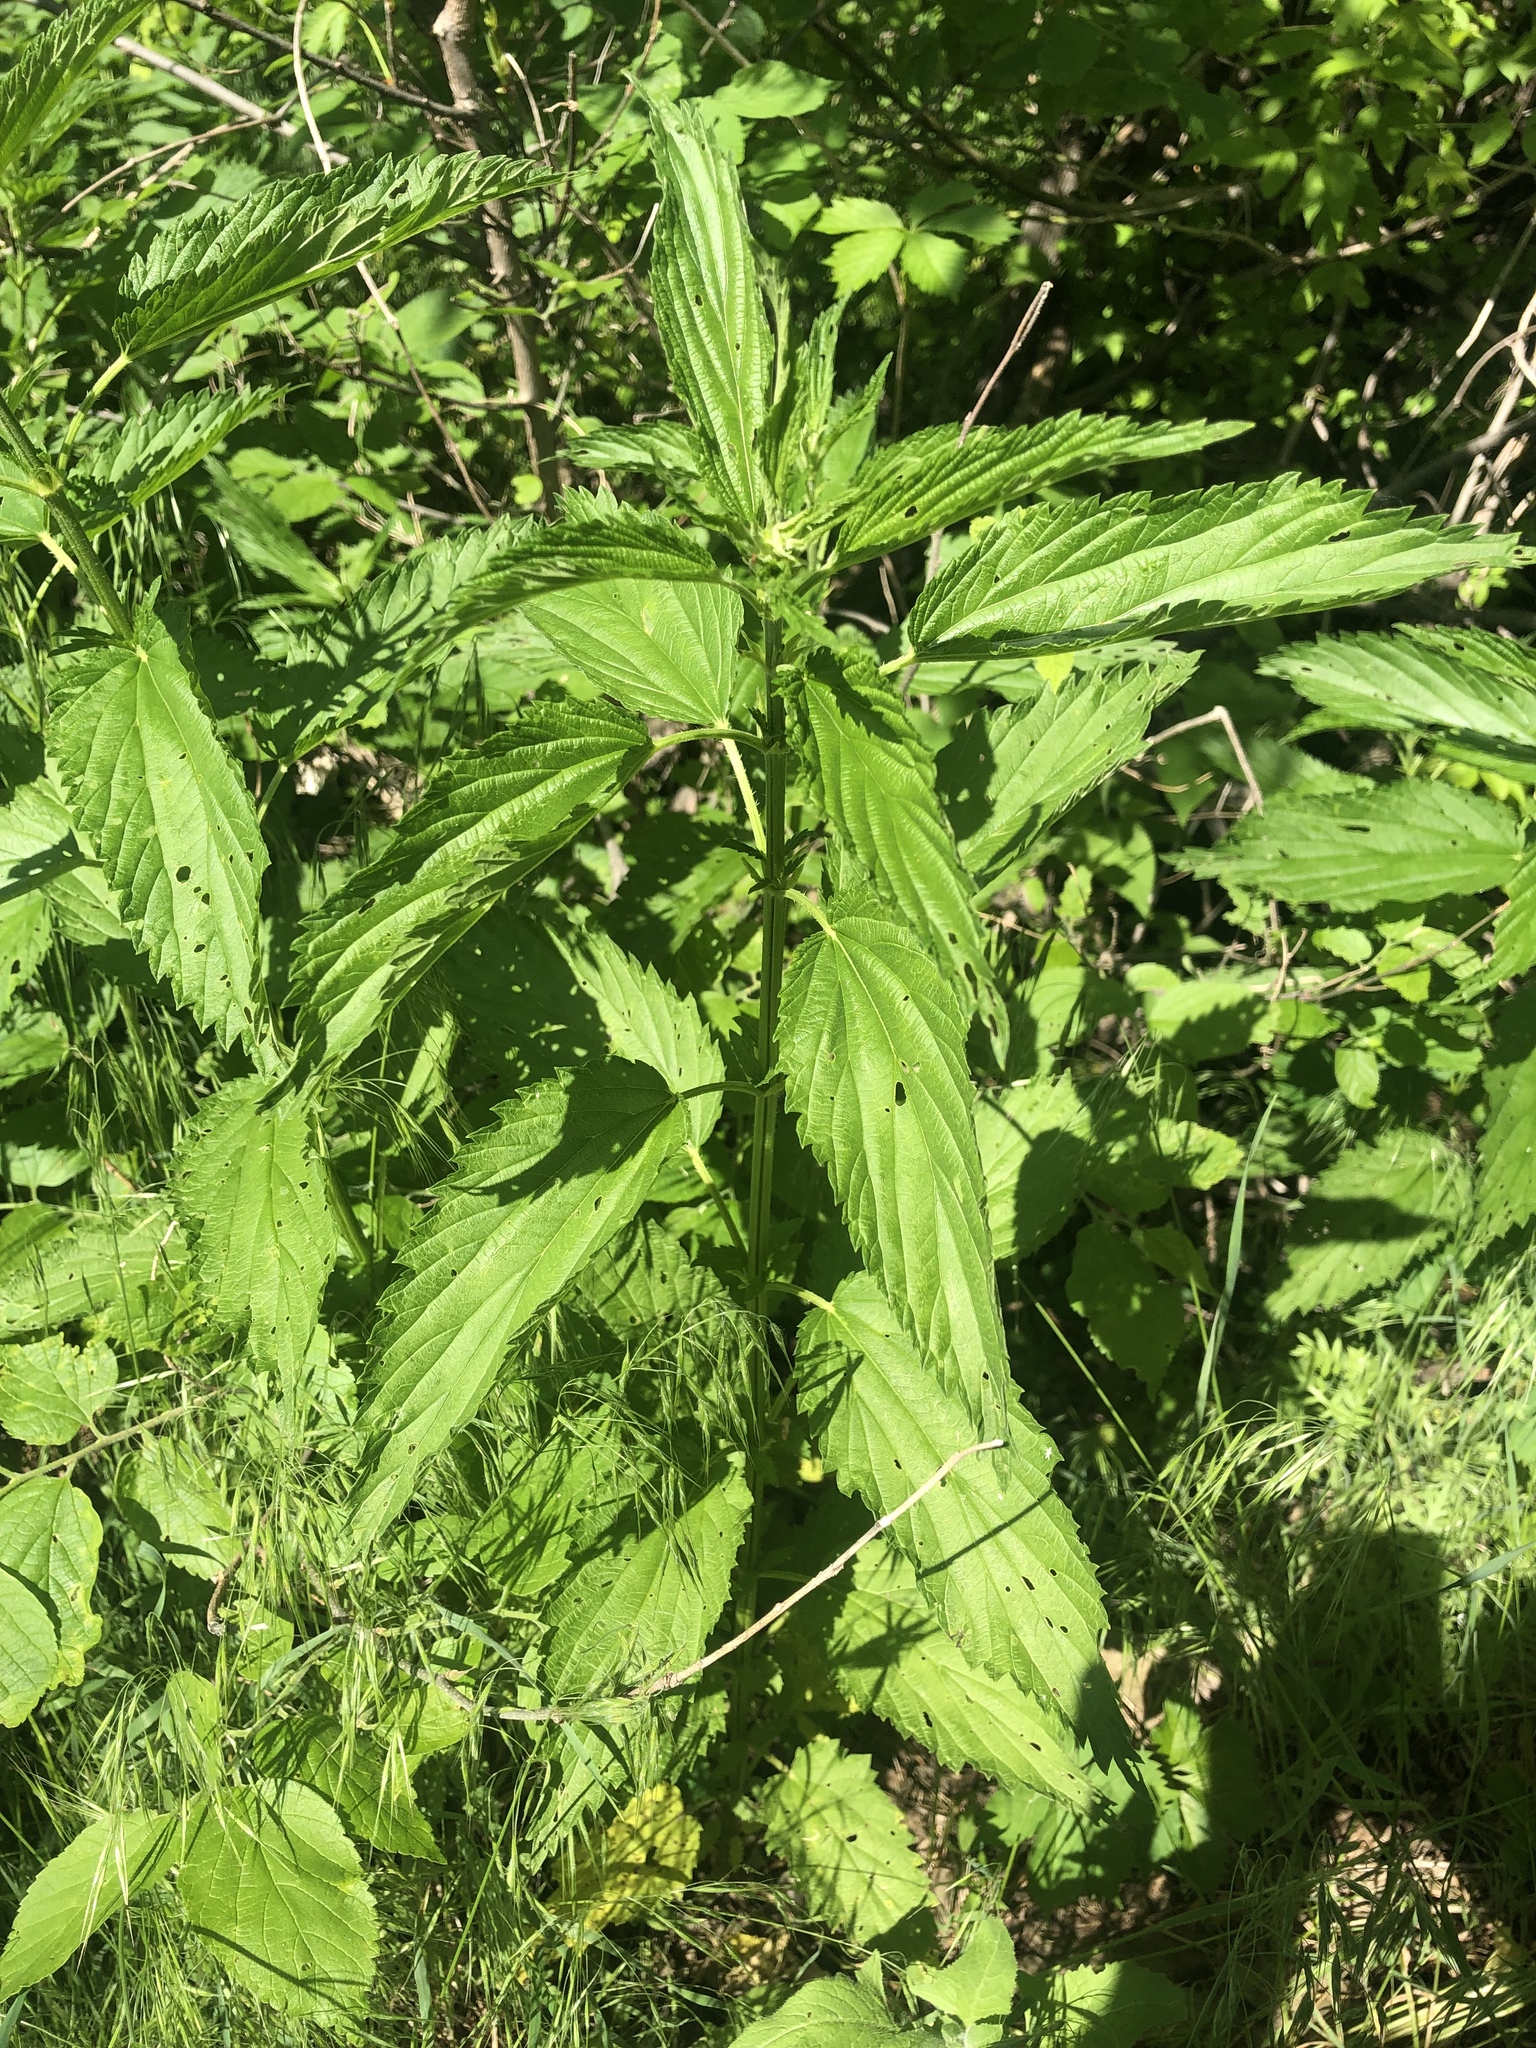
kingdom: Plantae
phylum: Tracheophyta
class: Magnoliopsida
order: Rosales
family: Urticaceae
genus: Urtica
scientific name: Urtica dioica
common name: Common nettle
